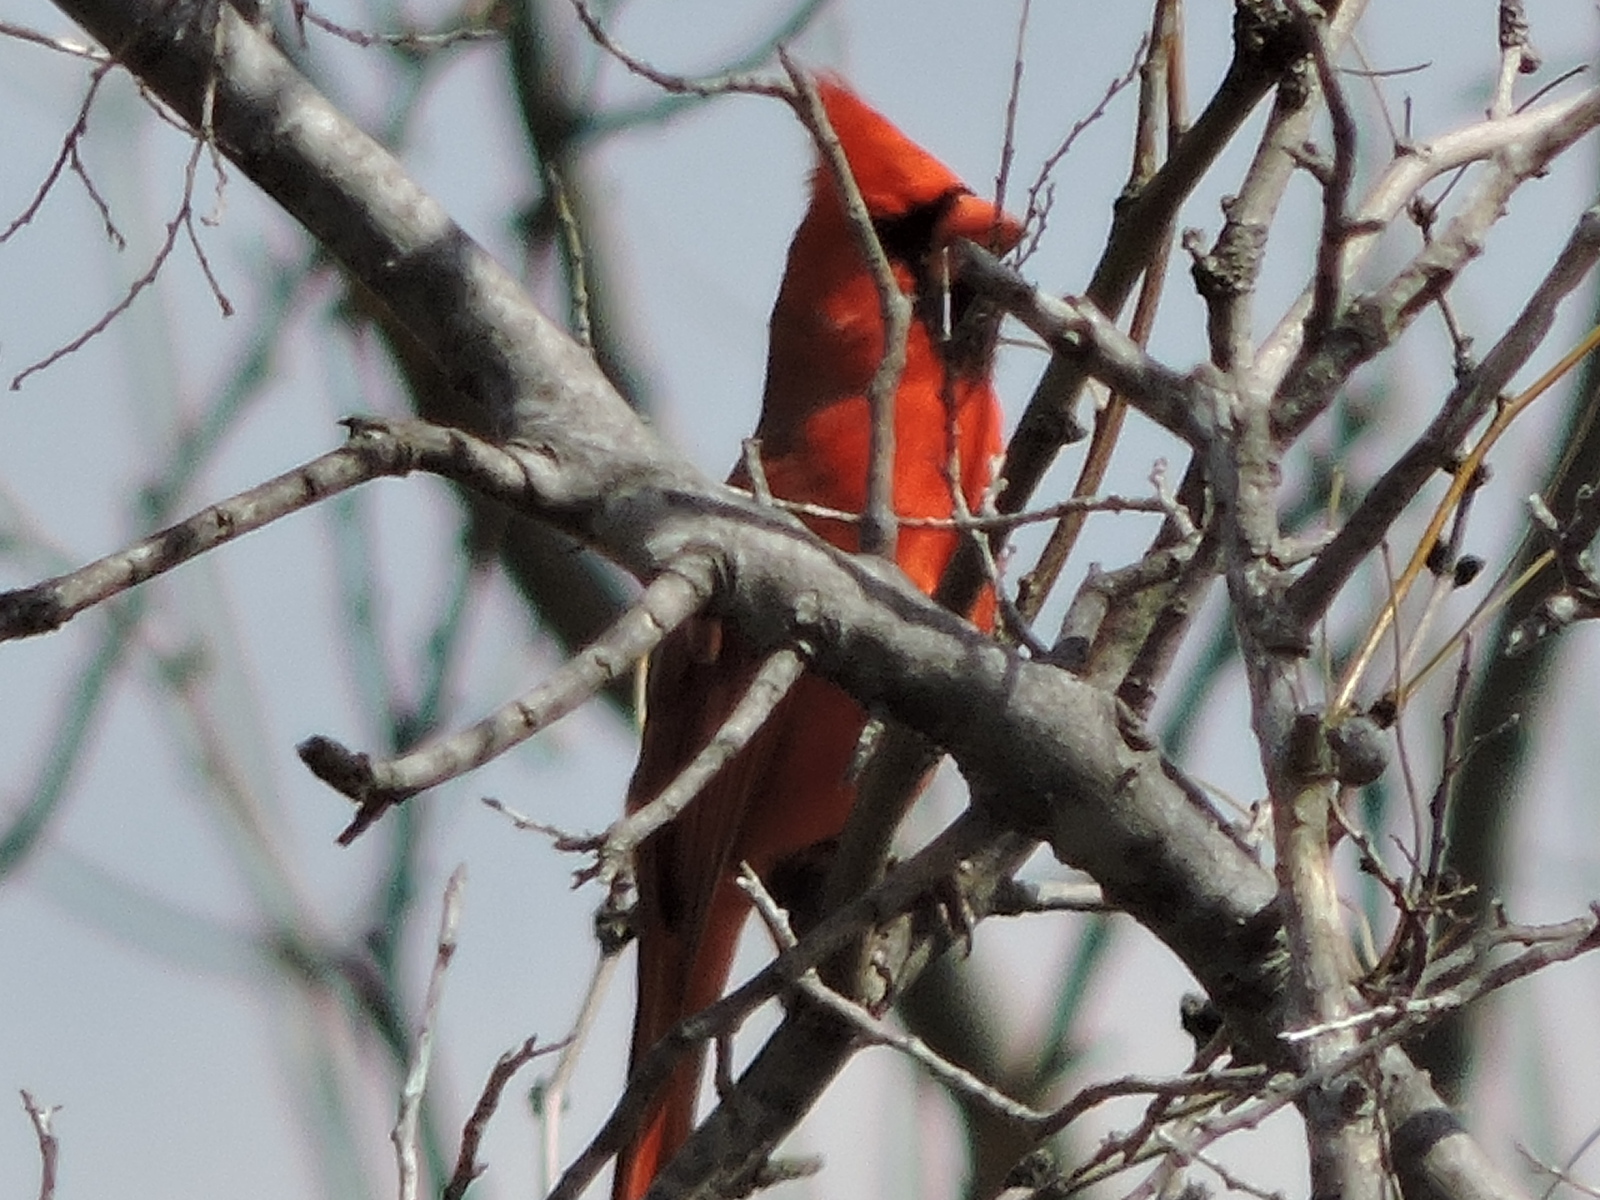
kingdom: Animalia
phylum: Chordata
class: Aves
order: Passeriformes
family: Cardinalidae
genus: Cardinalis
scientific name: Cardinalis cardinalis
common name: Northern cardinal
